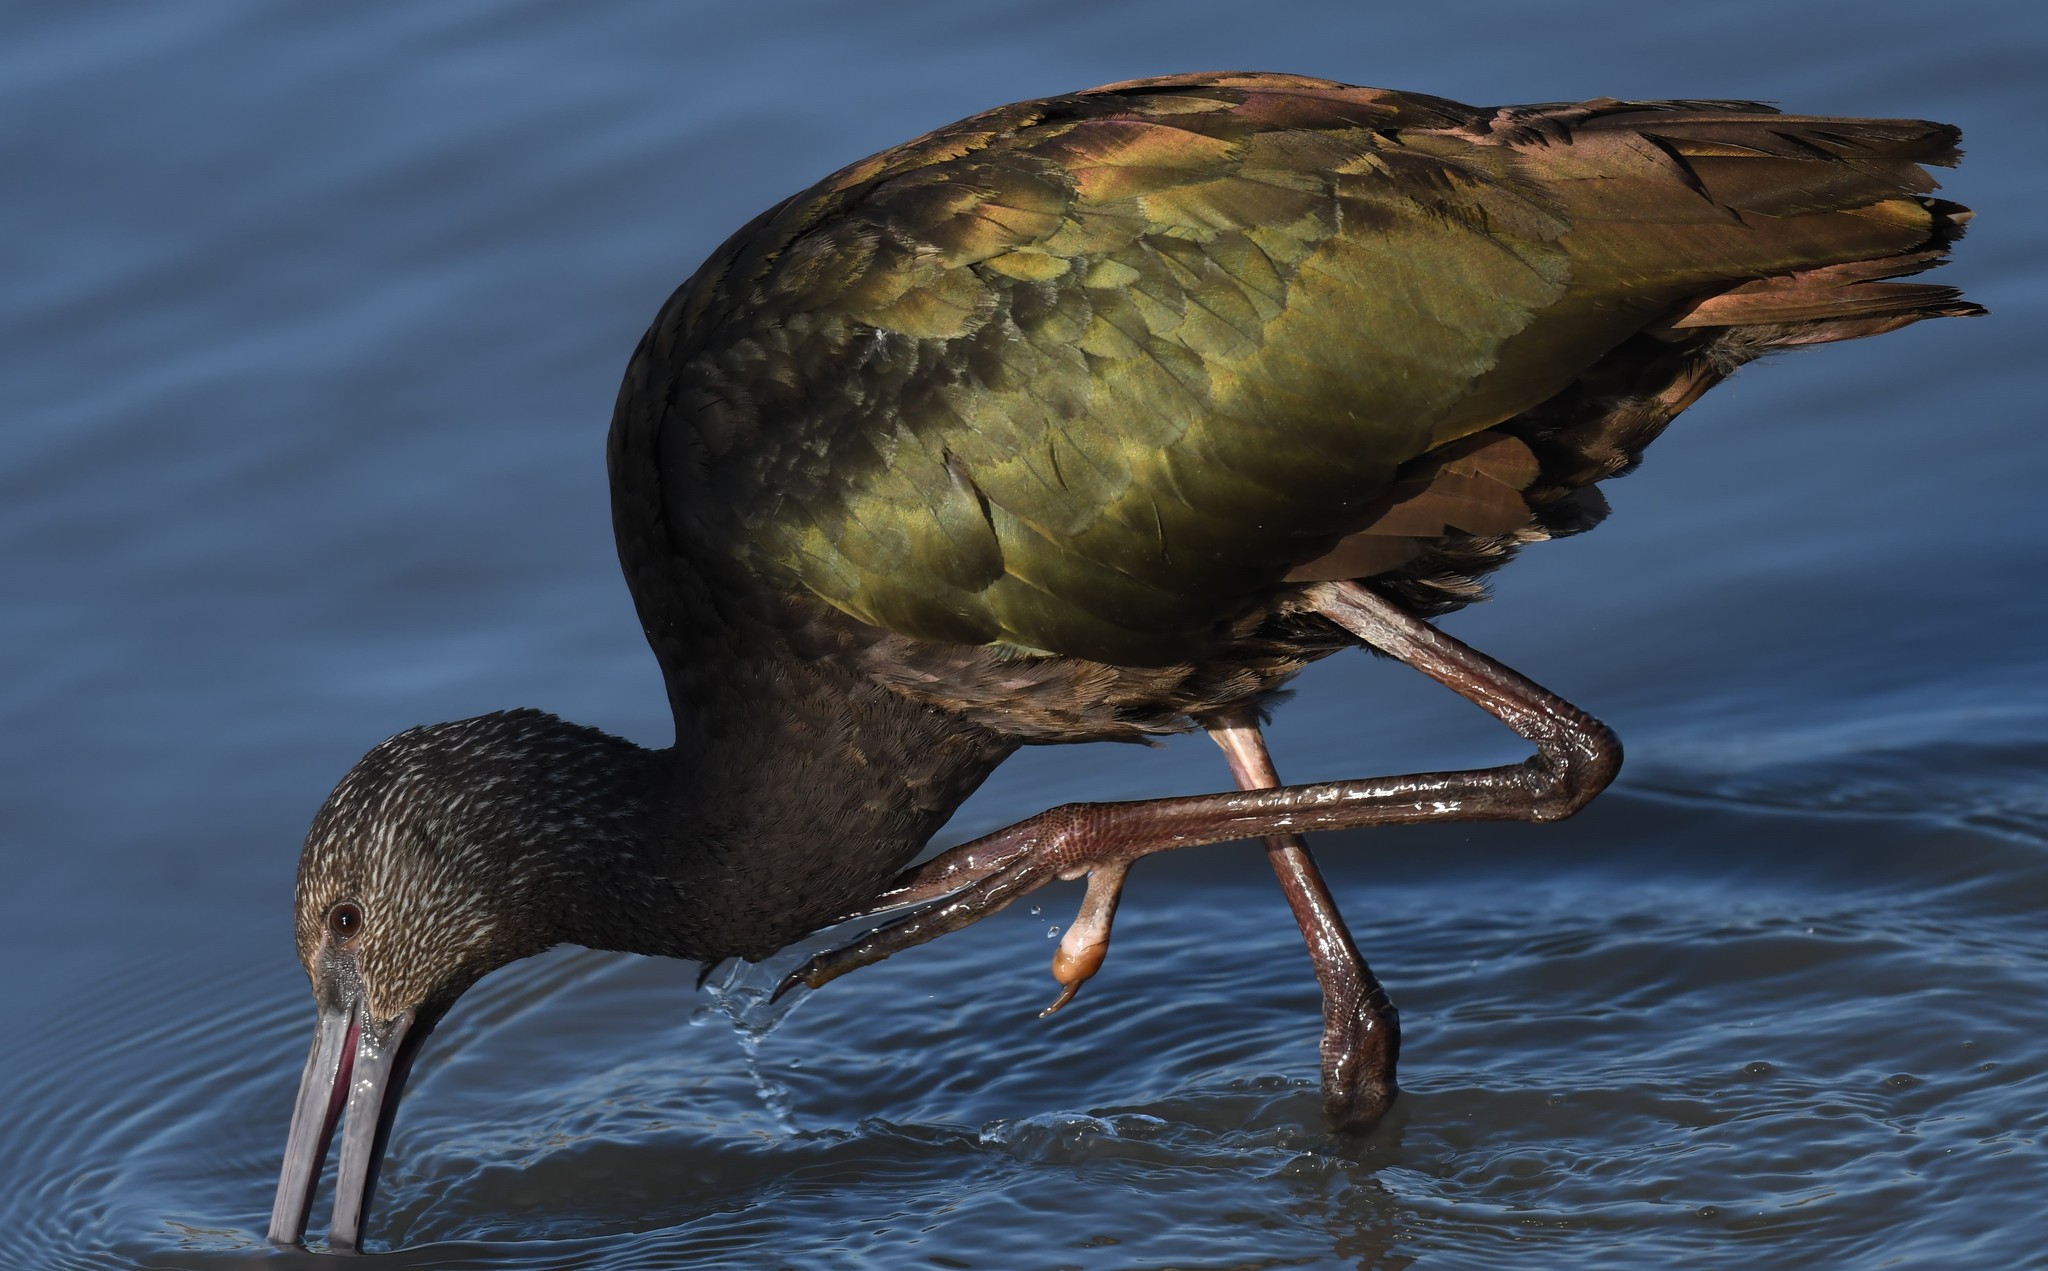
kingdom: Animalia
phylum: Chordata
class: Aves
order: Pelecaniformes
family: Threskiornithidae
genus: Plegadis
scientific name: Plegadis chihi
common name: White-faced ibis
